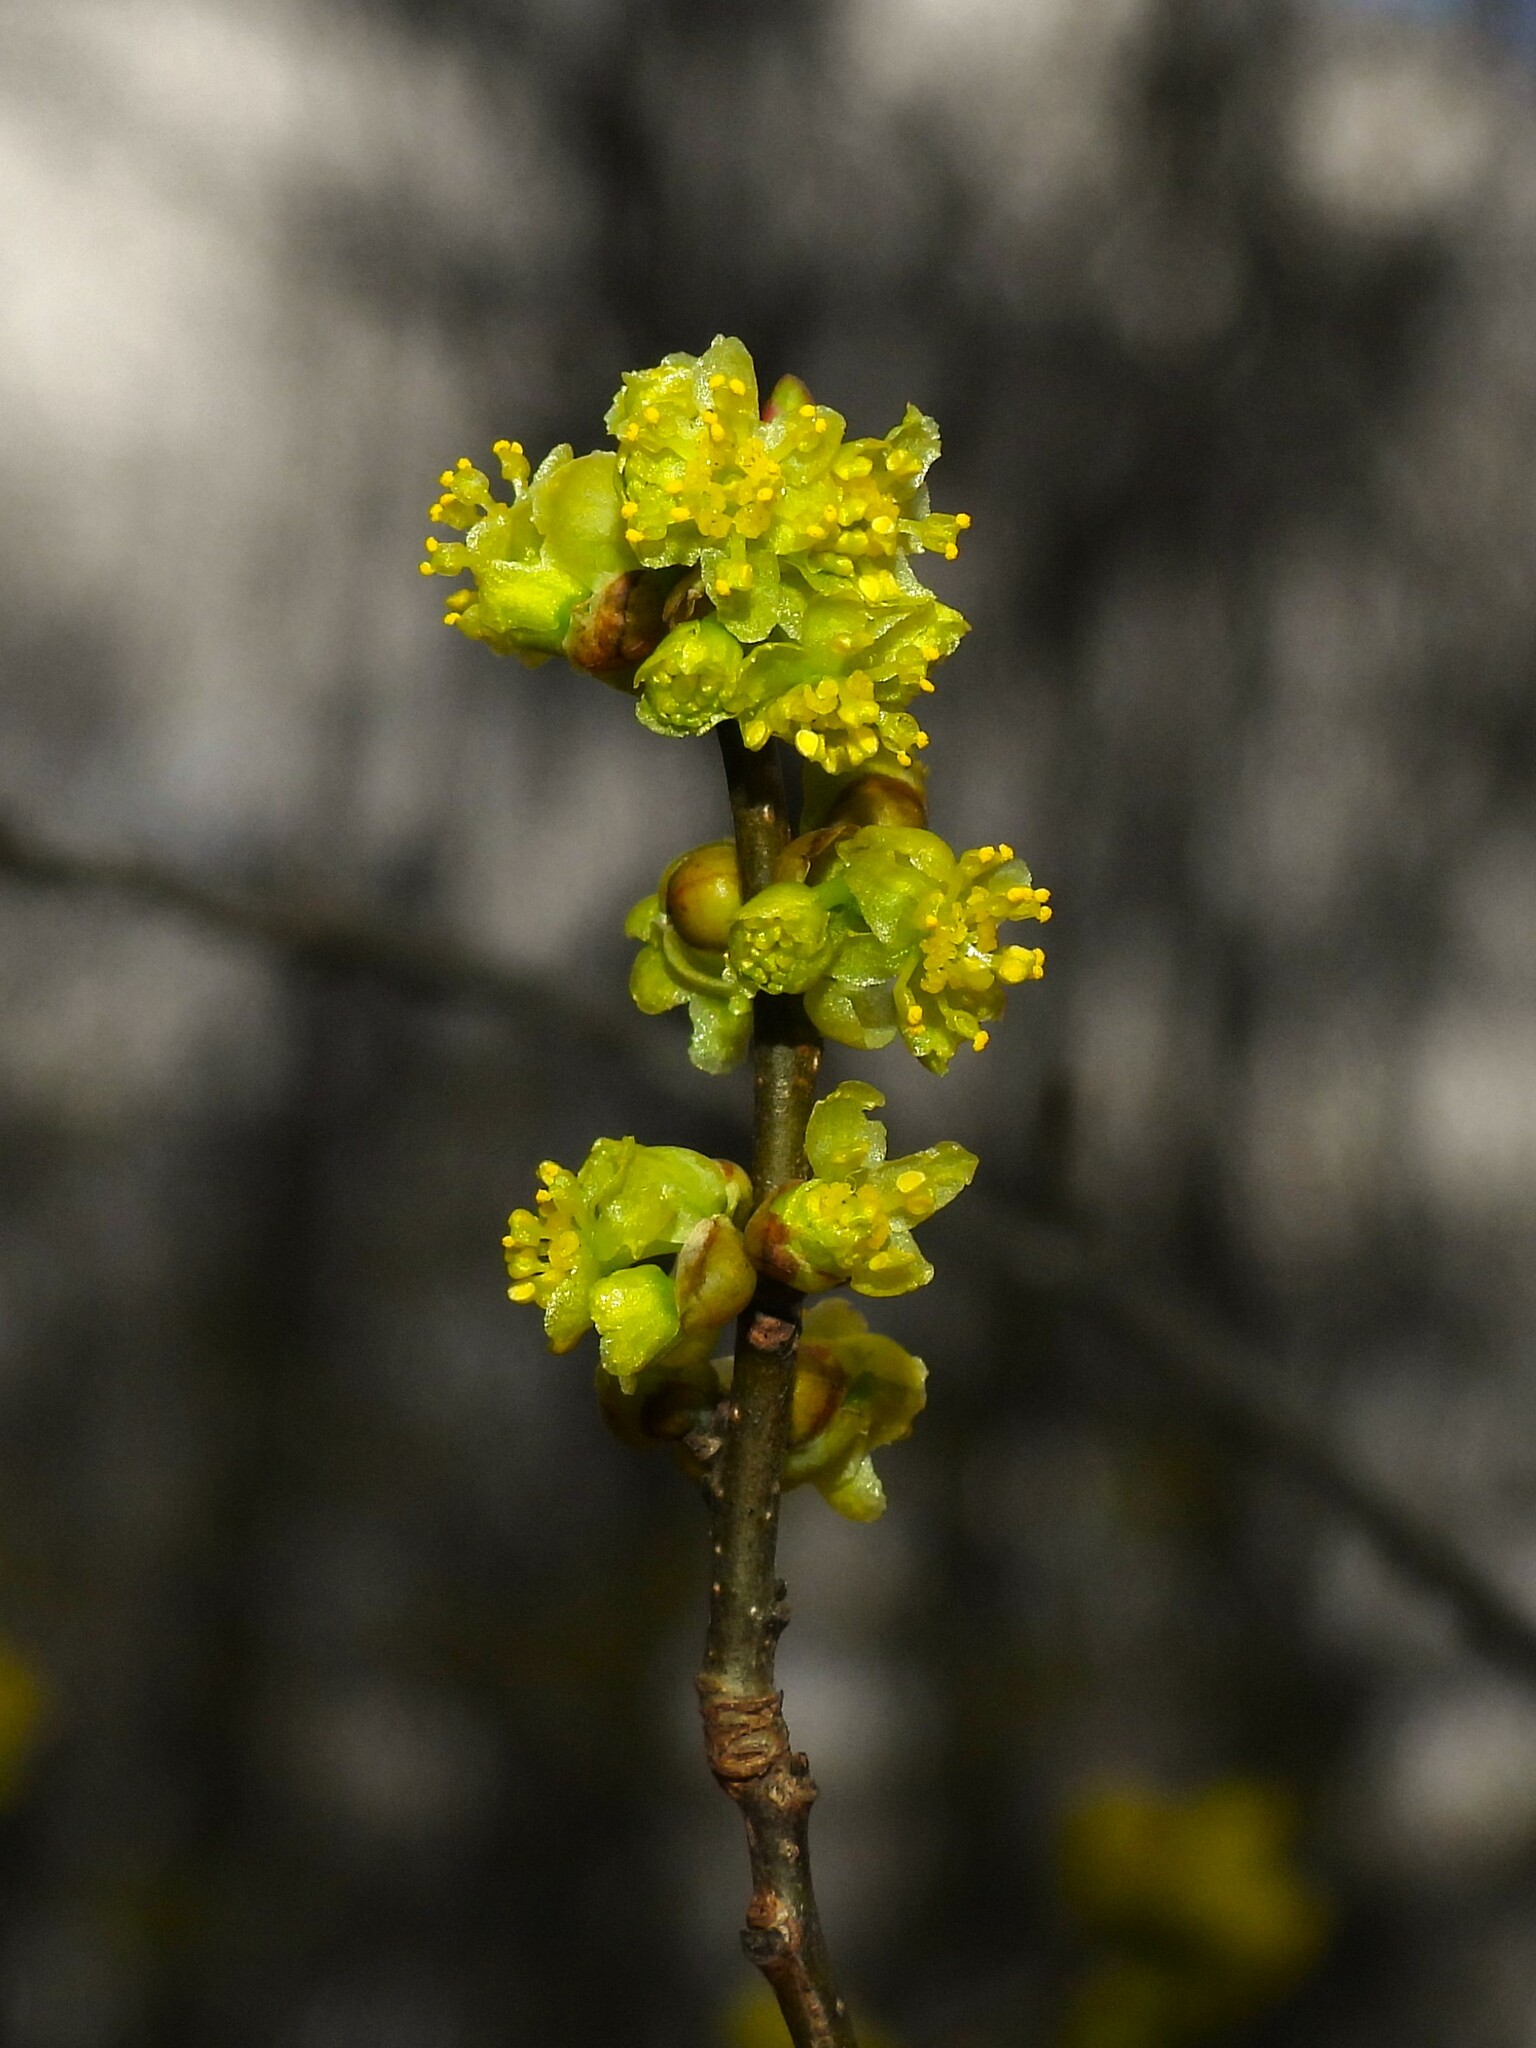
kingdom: Plantae
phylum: Tracheophyta
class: Magnoliopsida
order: Laurales
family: Lauraceae
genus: Lindera
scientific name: Lindera benzoin
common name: Spicebush
